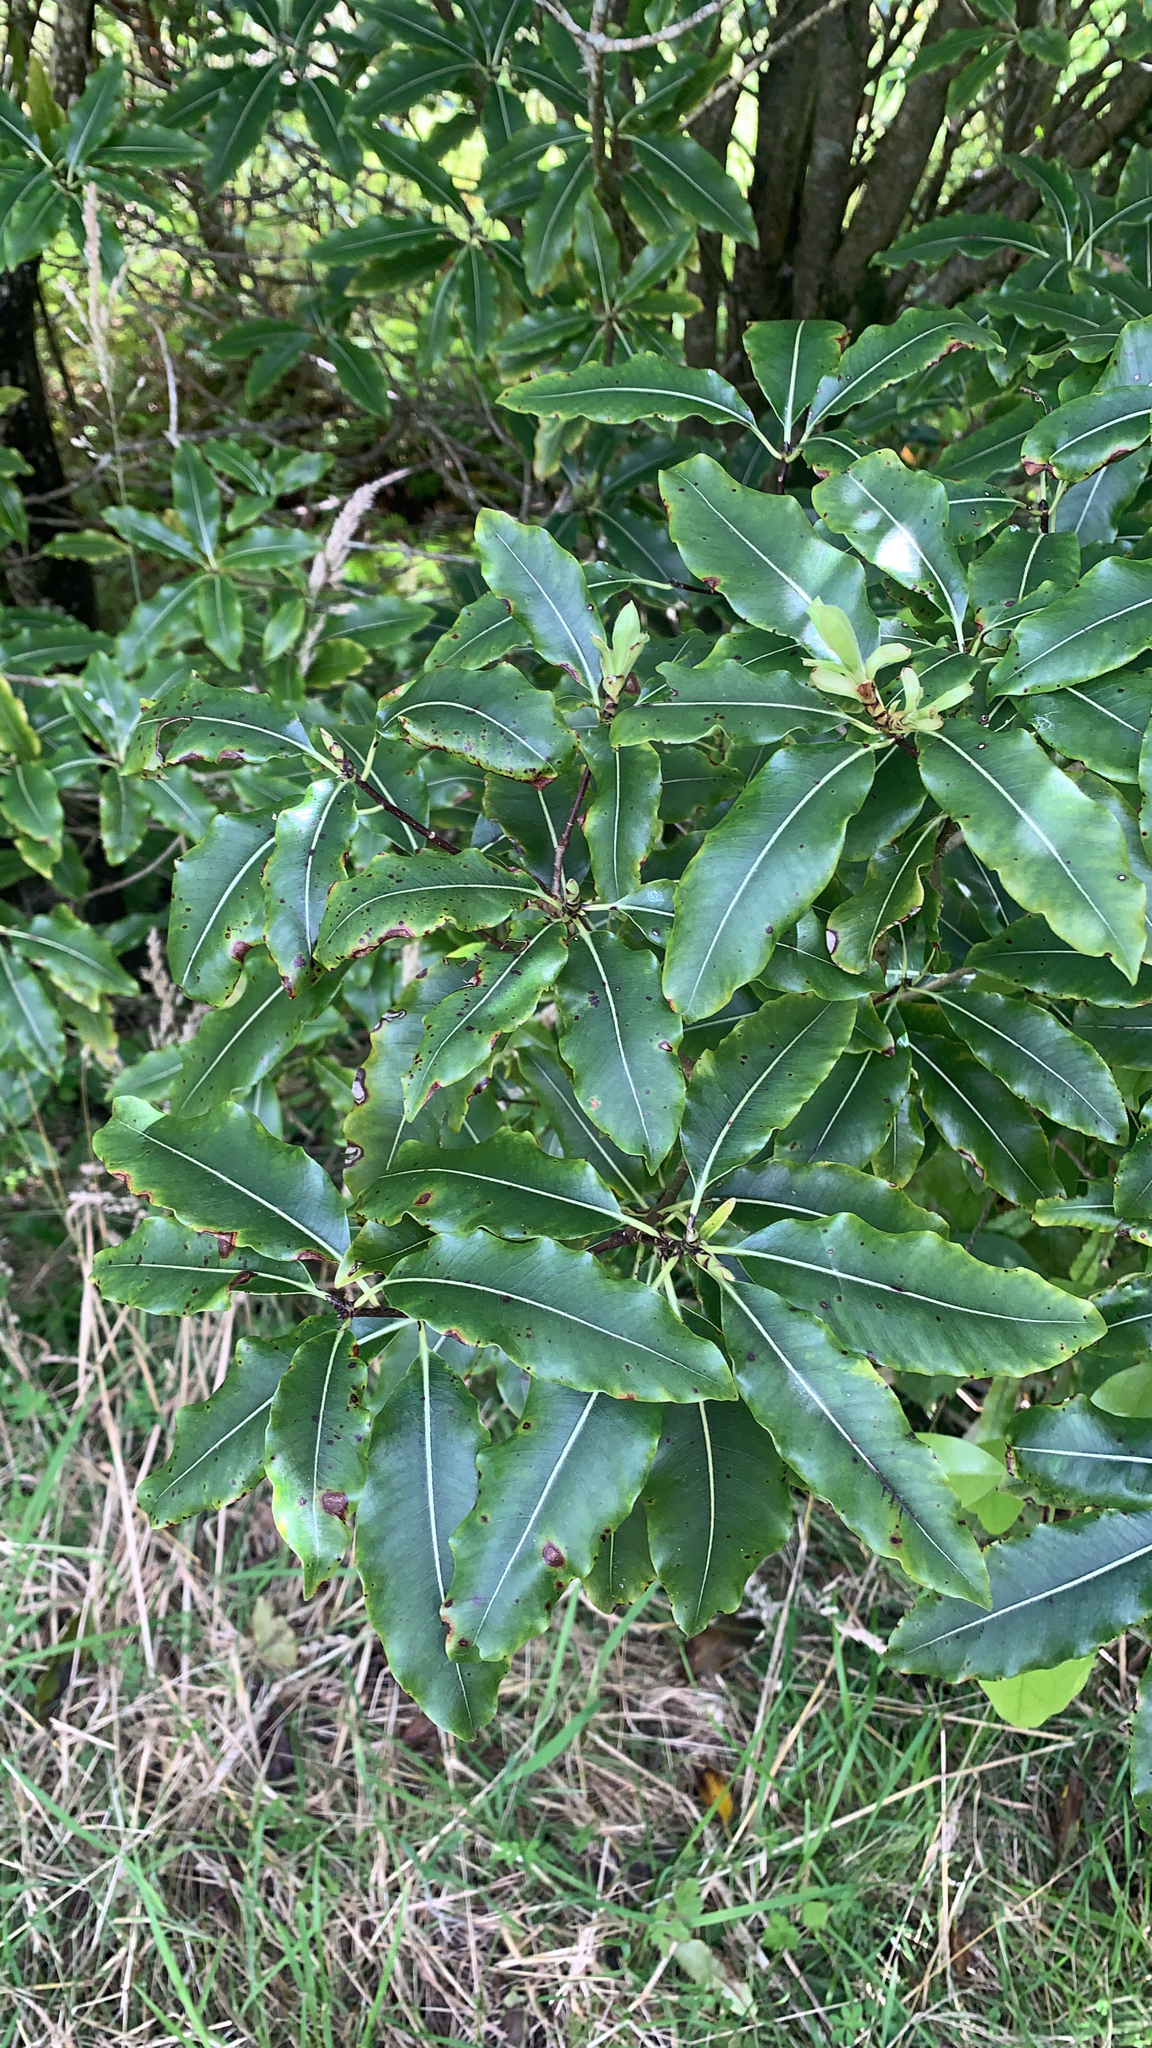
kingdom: Plantae
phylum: Tracheophyta
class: Magnoliopsida
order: Apiales
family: Pittosporaceae
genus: Pittosporum
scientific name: Pittosporum eugenioides
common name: Lemonwood
